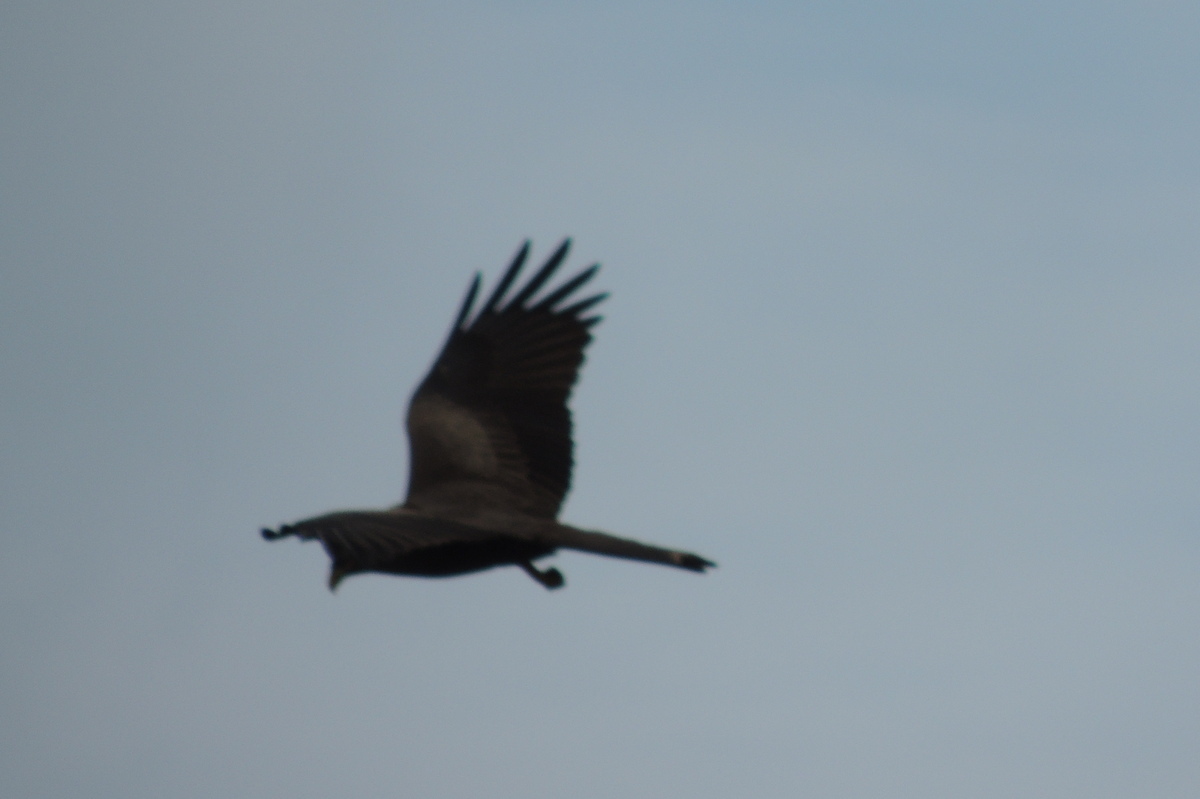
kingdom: Animalia
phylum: Chordata
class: Aves
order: Accipitriformes
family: Accipitridae
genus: Milvus
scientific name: Milvus migrans
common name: Black kite
